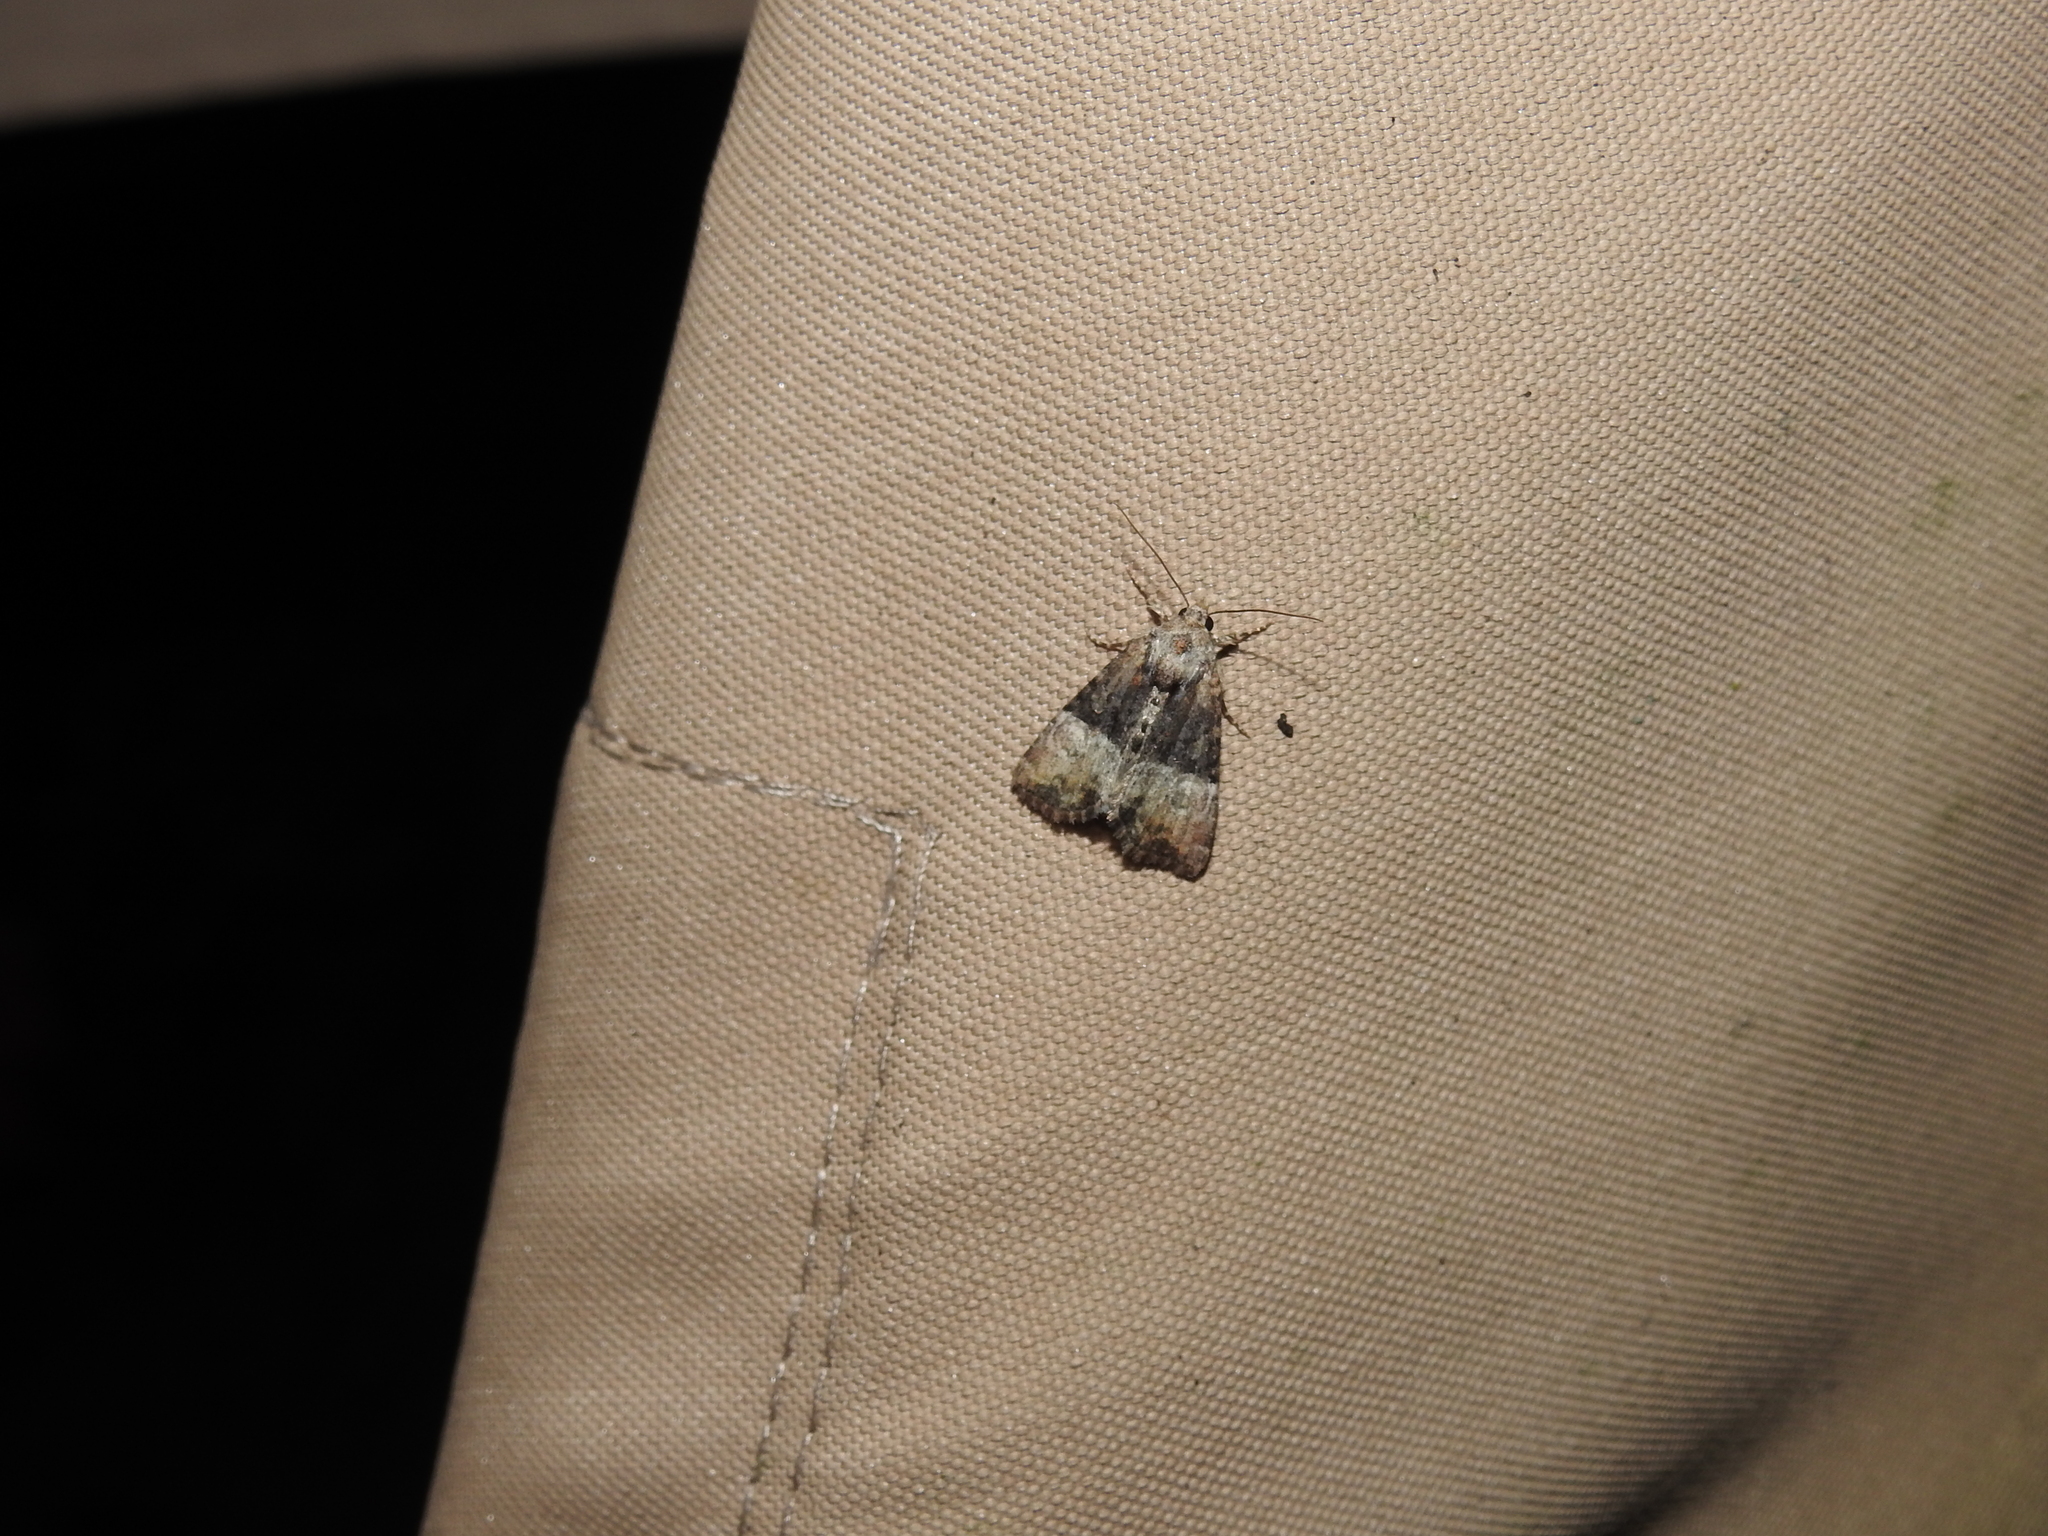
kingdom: Animalia
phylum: Arthropoda
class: Insecta
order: Lepidoptera
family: Noctuidae
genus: Mesoligia
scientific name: Mesoligia furuncula
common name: Cloaked minor
